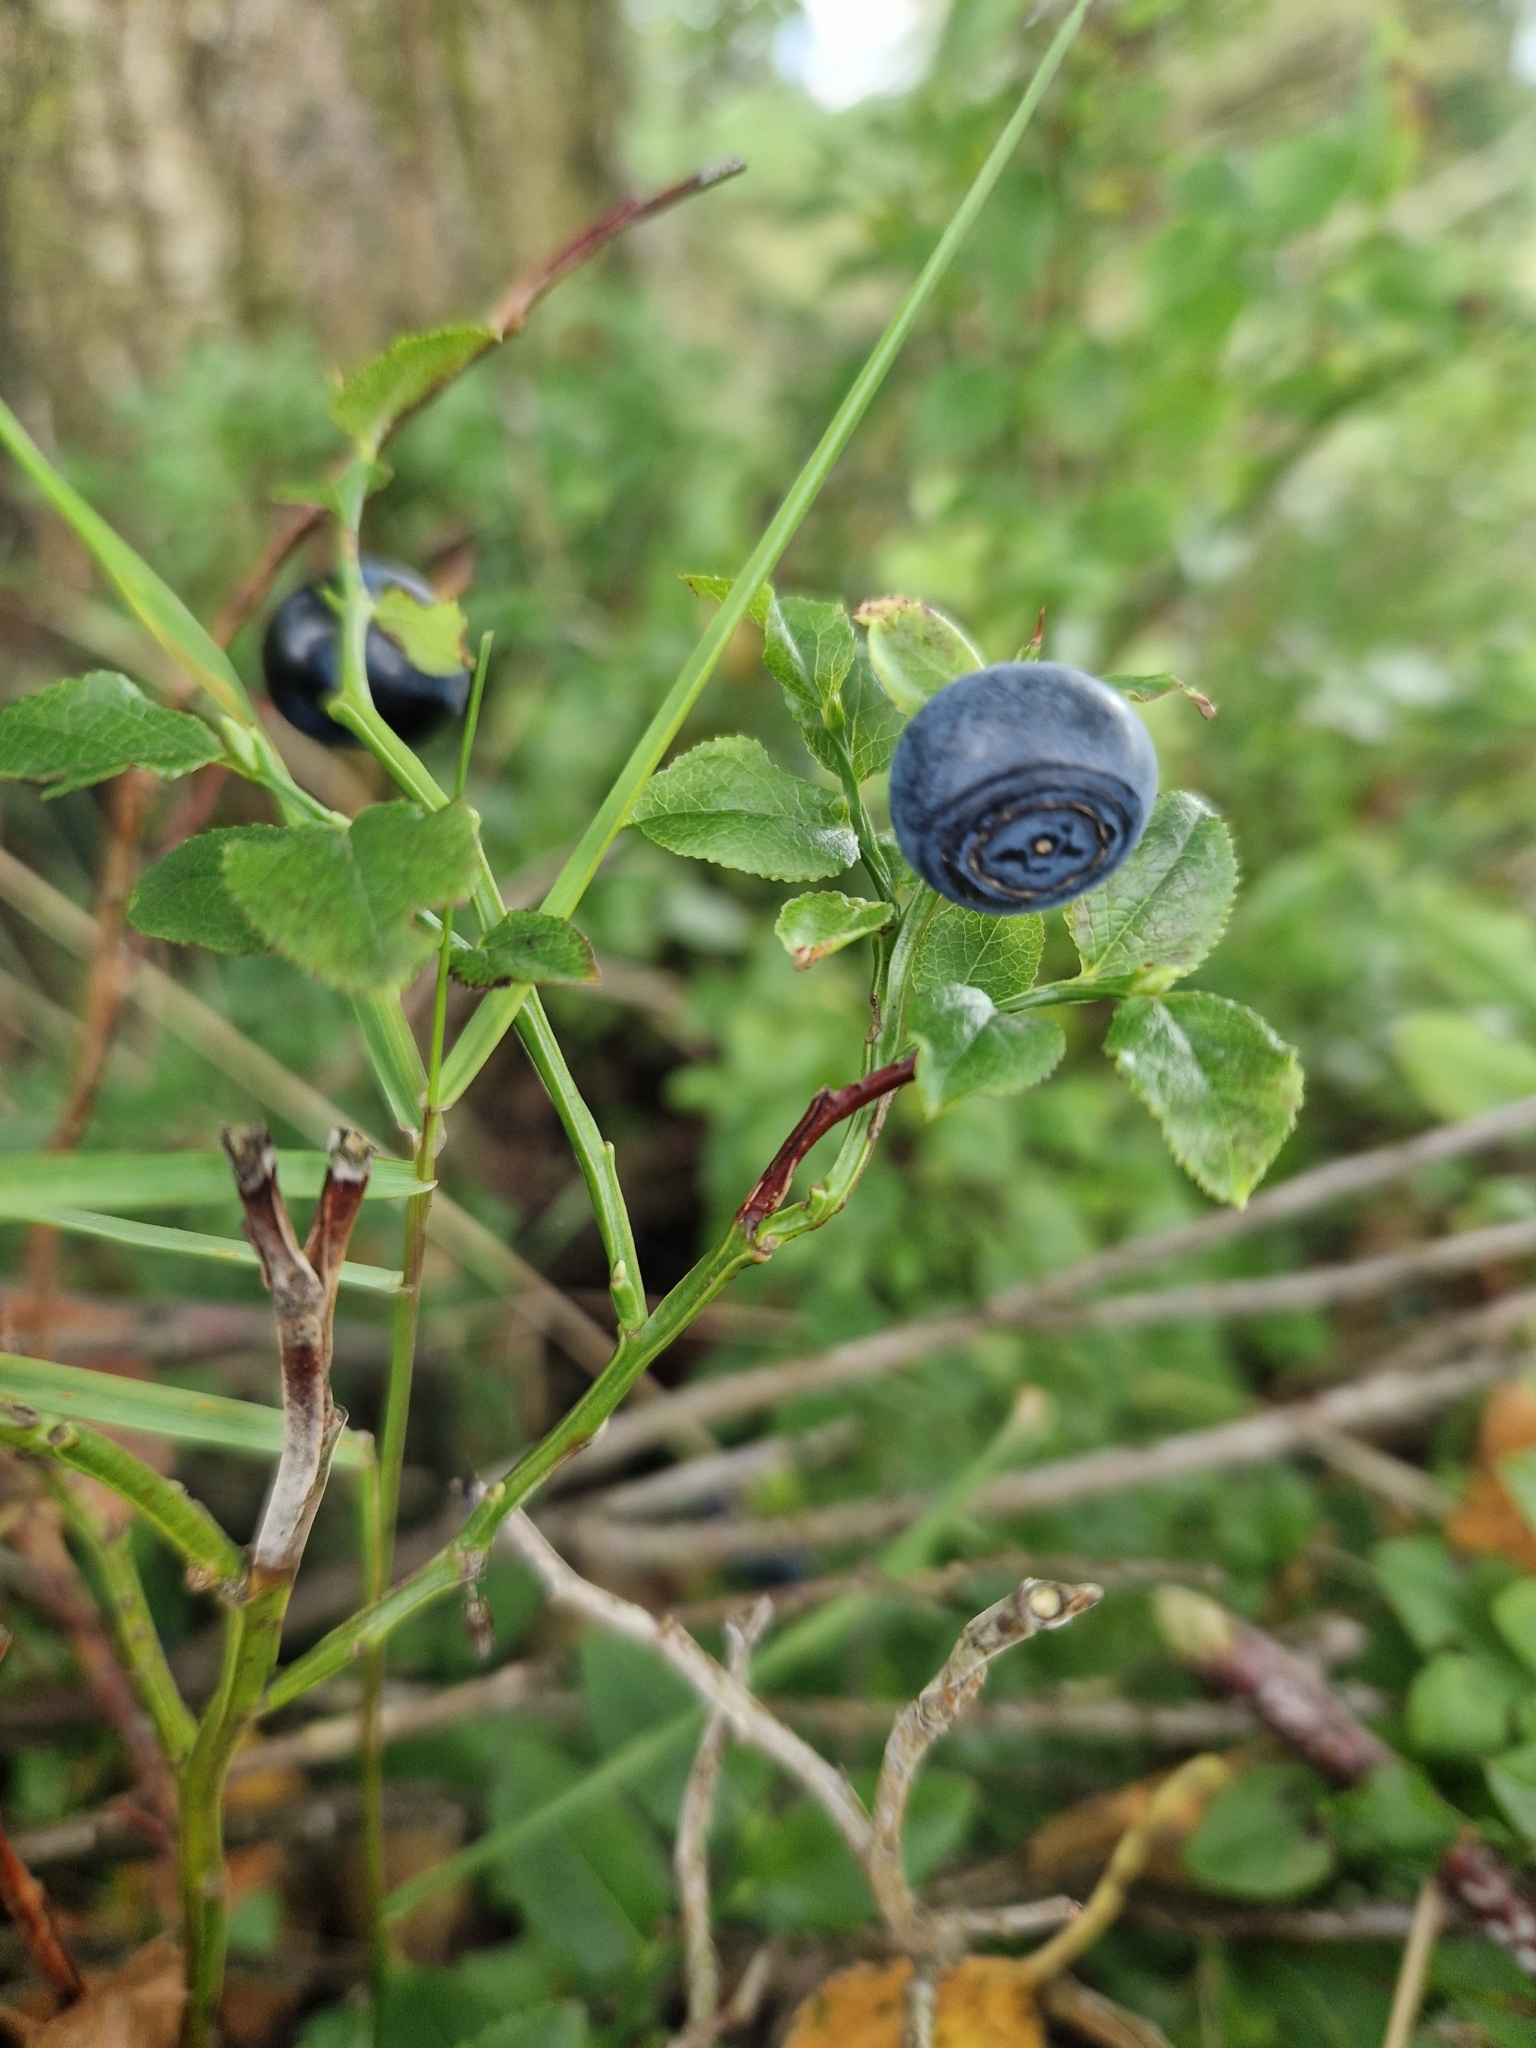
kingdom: Plantae
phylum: Tracheophyta
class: Magnoliopsida
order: Ericales
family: Ericaceae
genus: Vaccinium
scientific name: Vaccinium myrtillus
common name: Bilberry
